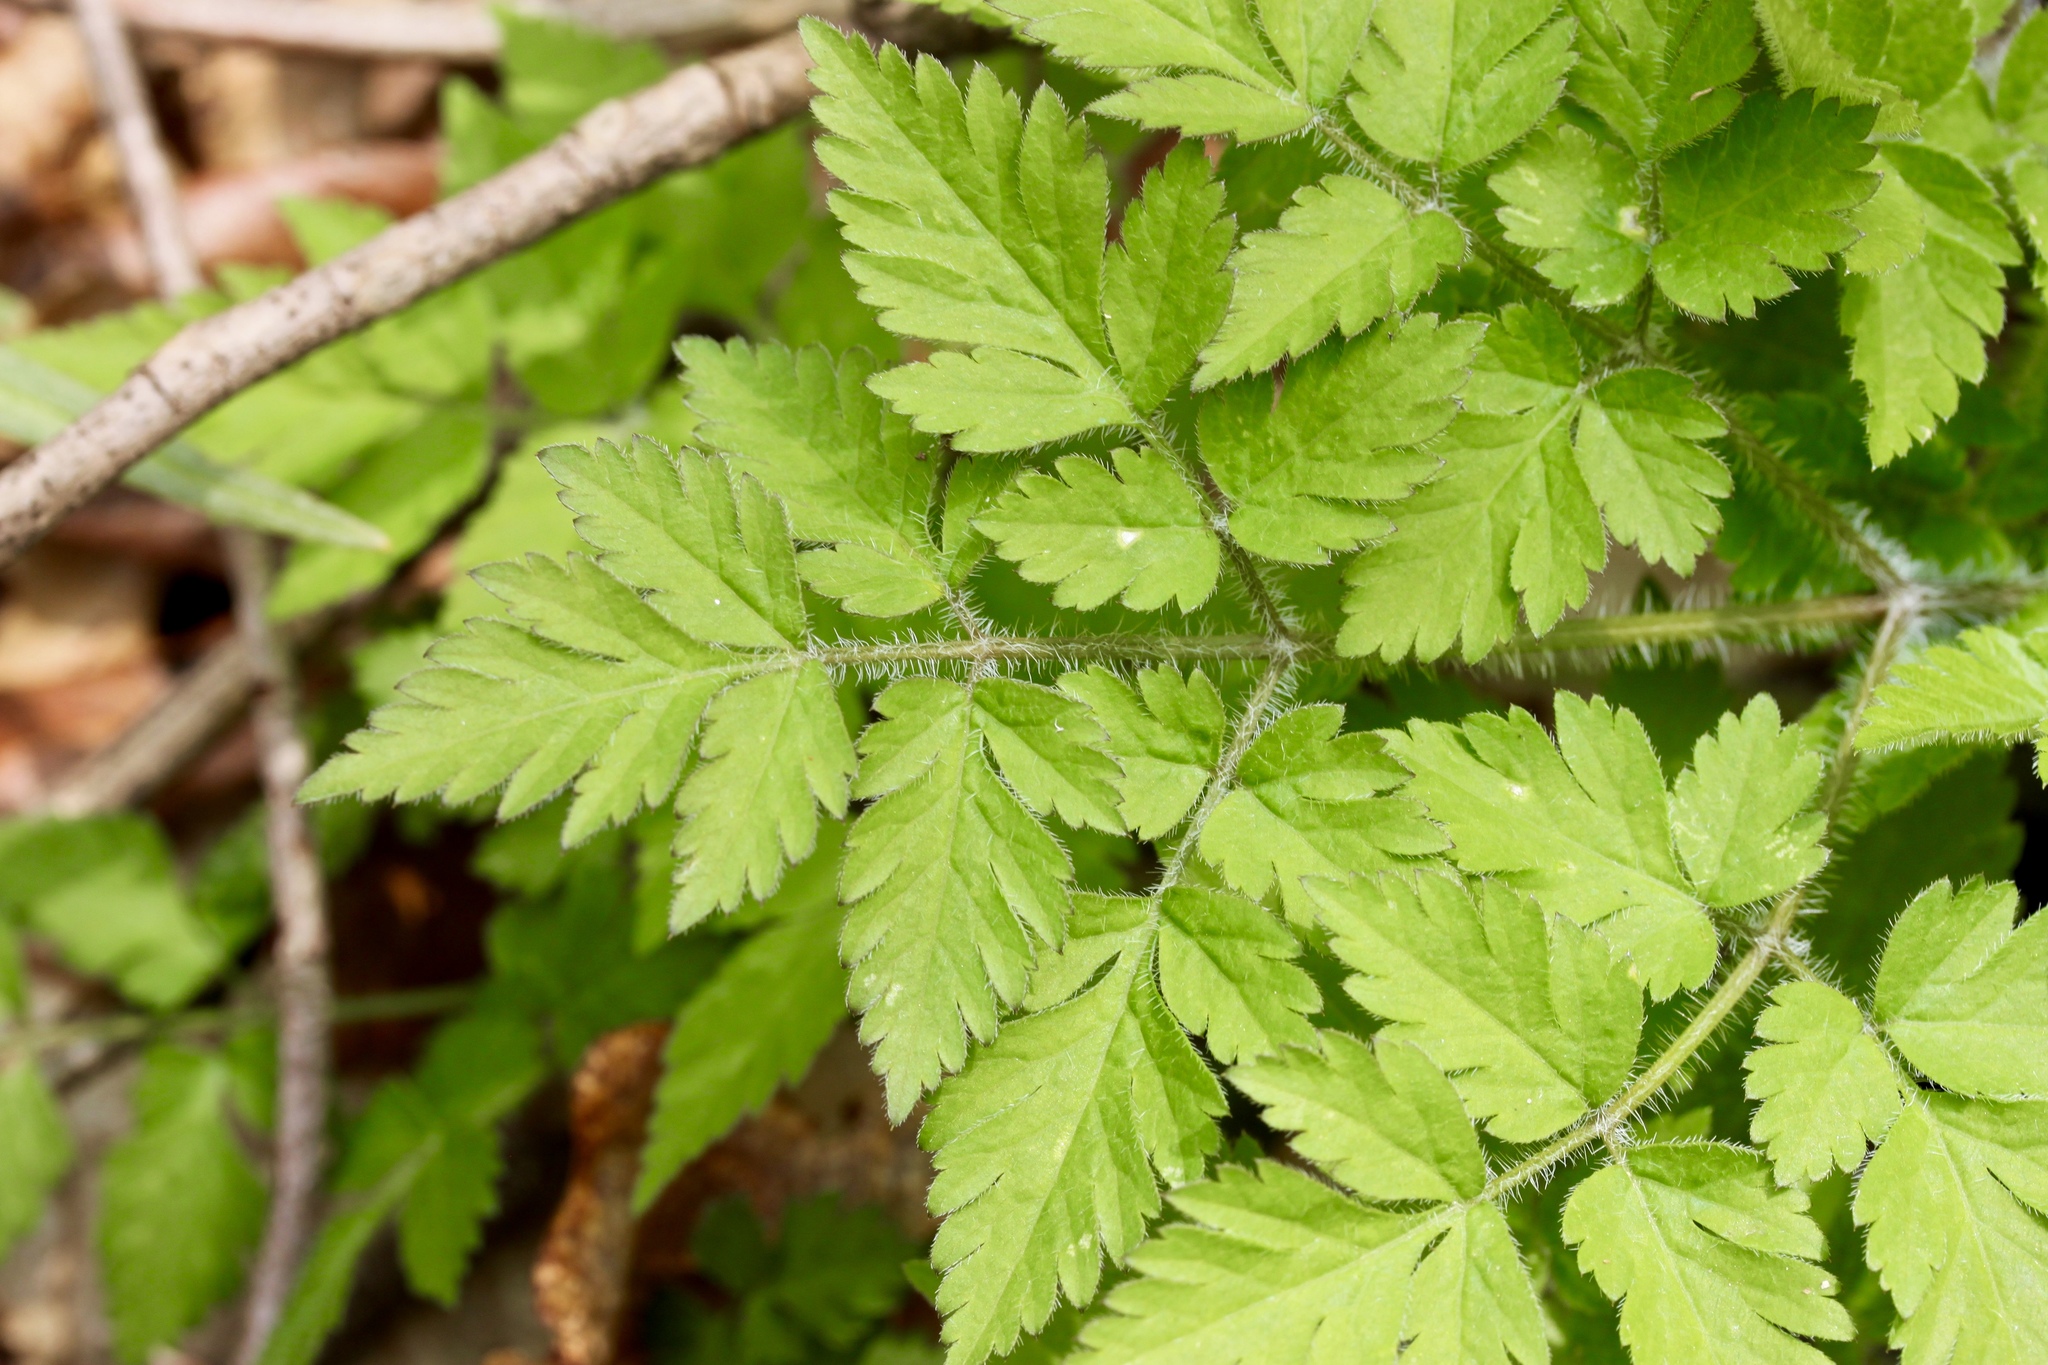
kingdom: Plantae
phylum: Tracheophyta
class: Magnoliopsida
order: Apiales
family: Apiaceae
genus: Osmorhiza
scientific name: Osmorhiza claytonii
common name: Hairy sweet cicely
